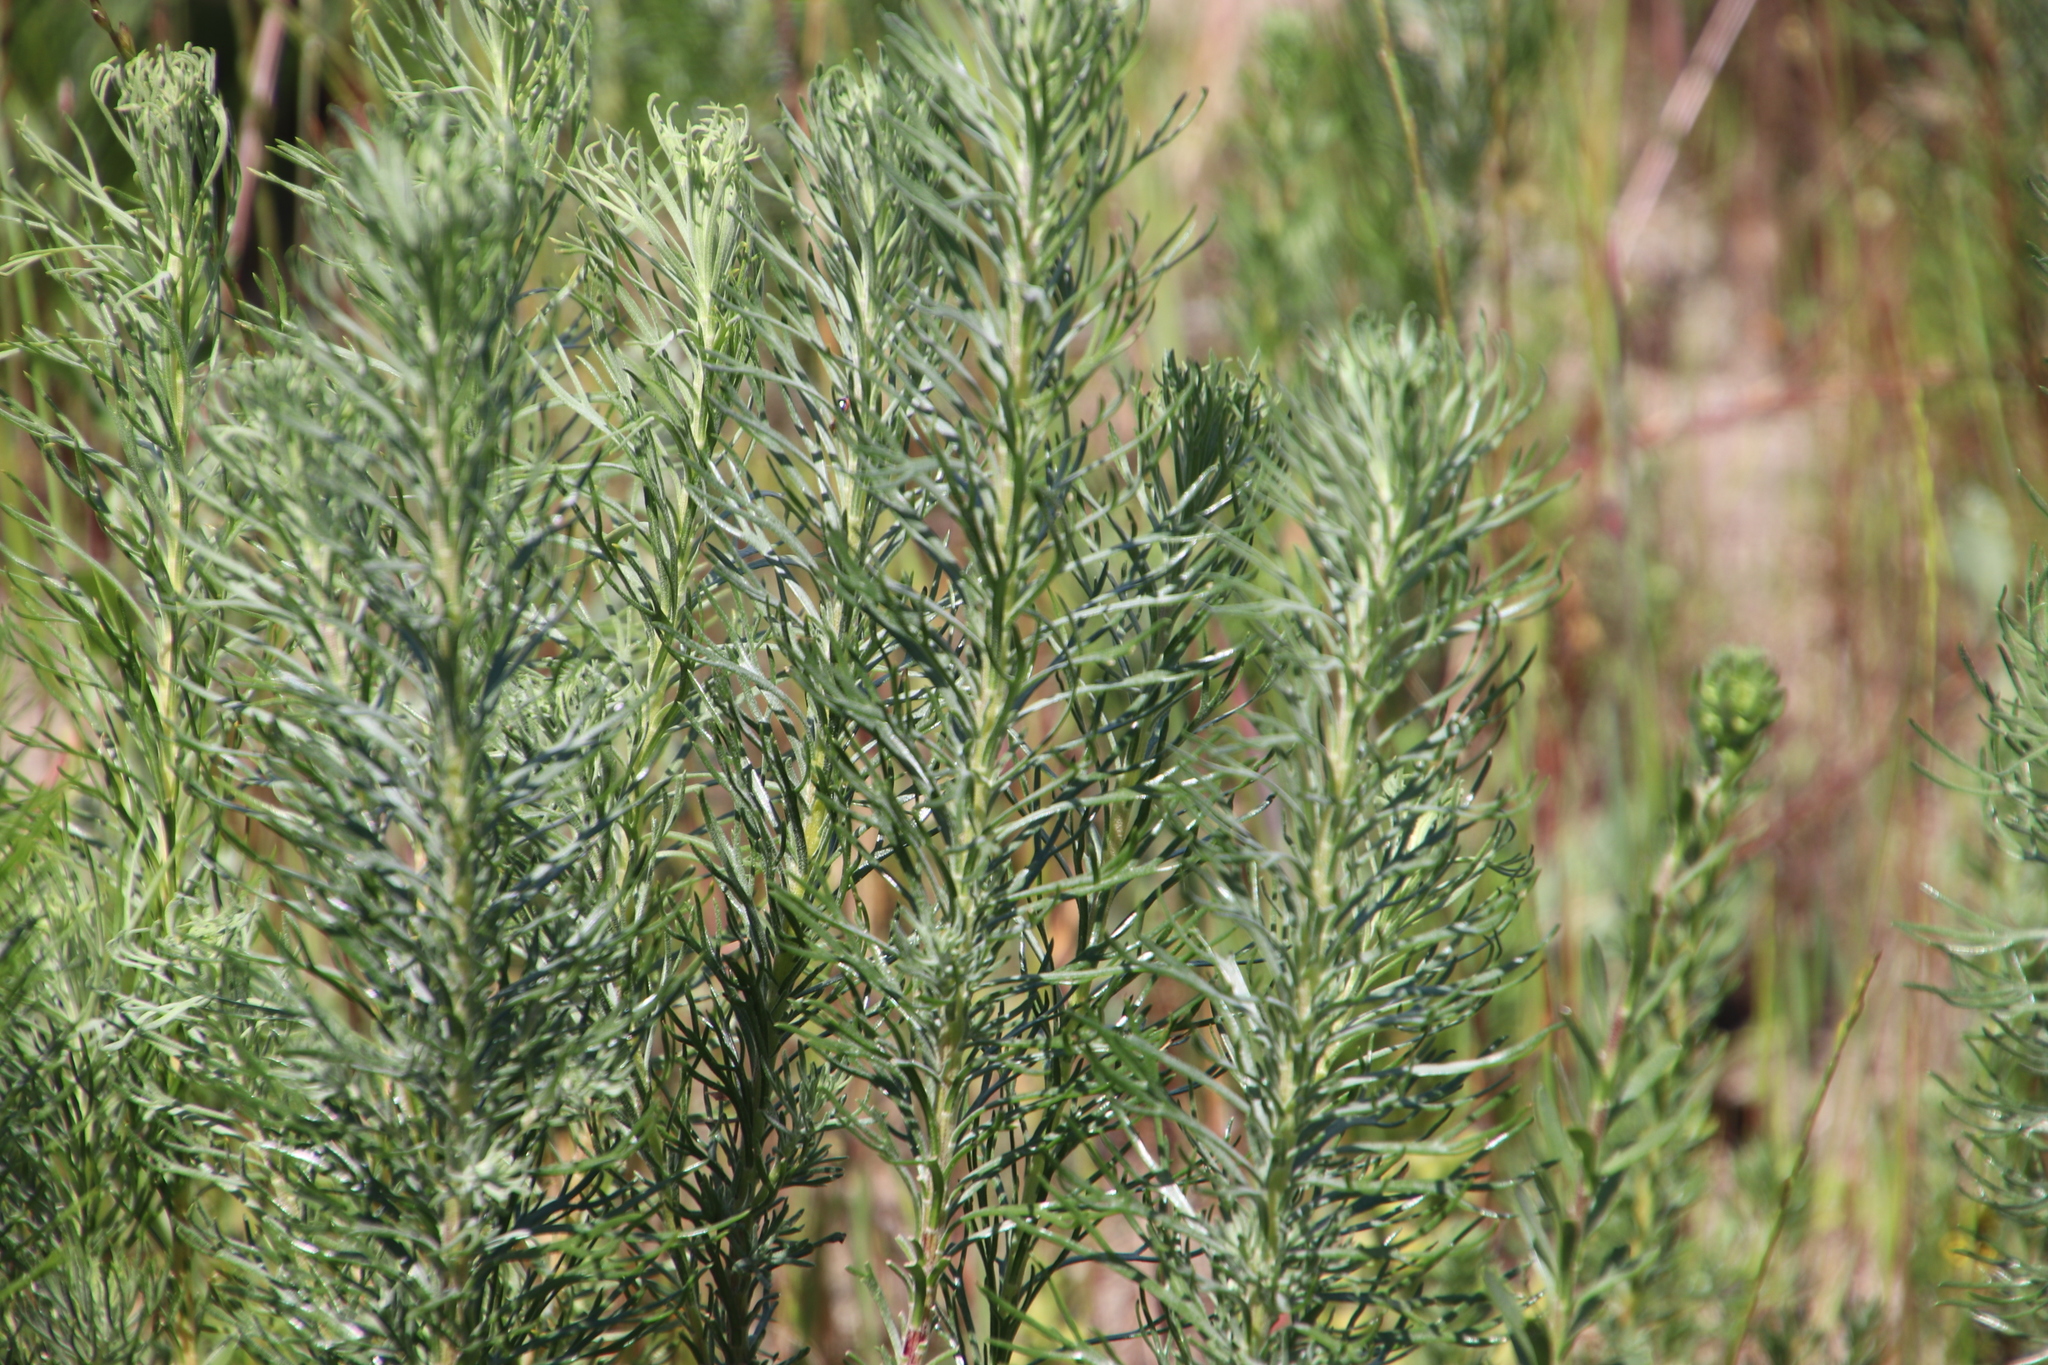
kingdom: Plantae
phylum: Tracheophyta
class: Magnoliopsida
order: Asterales
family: Asteraceae
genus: Athanasia
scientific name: Athanasia crithmifolia
